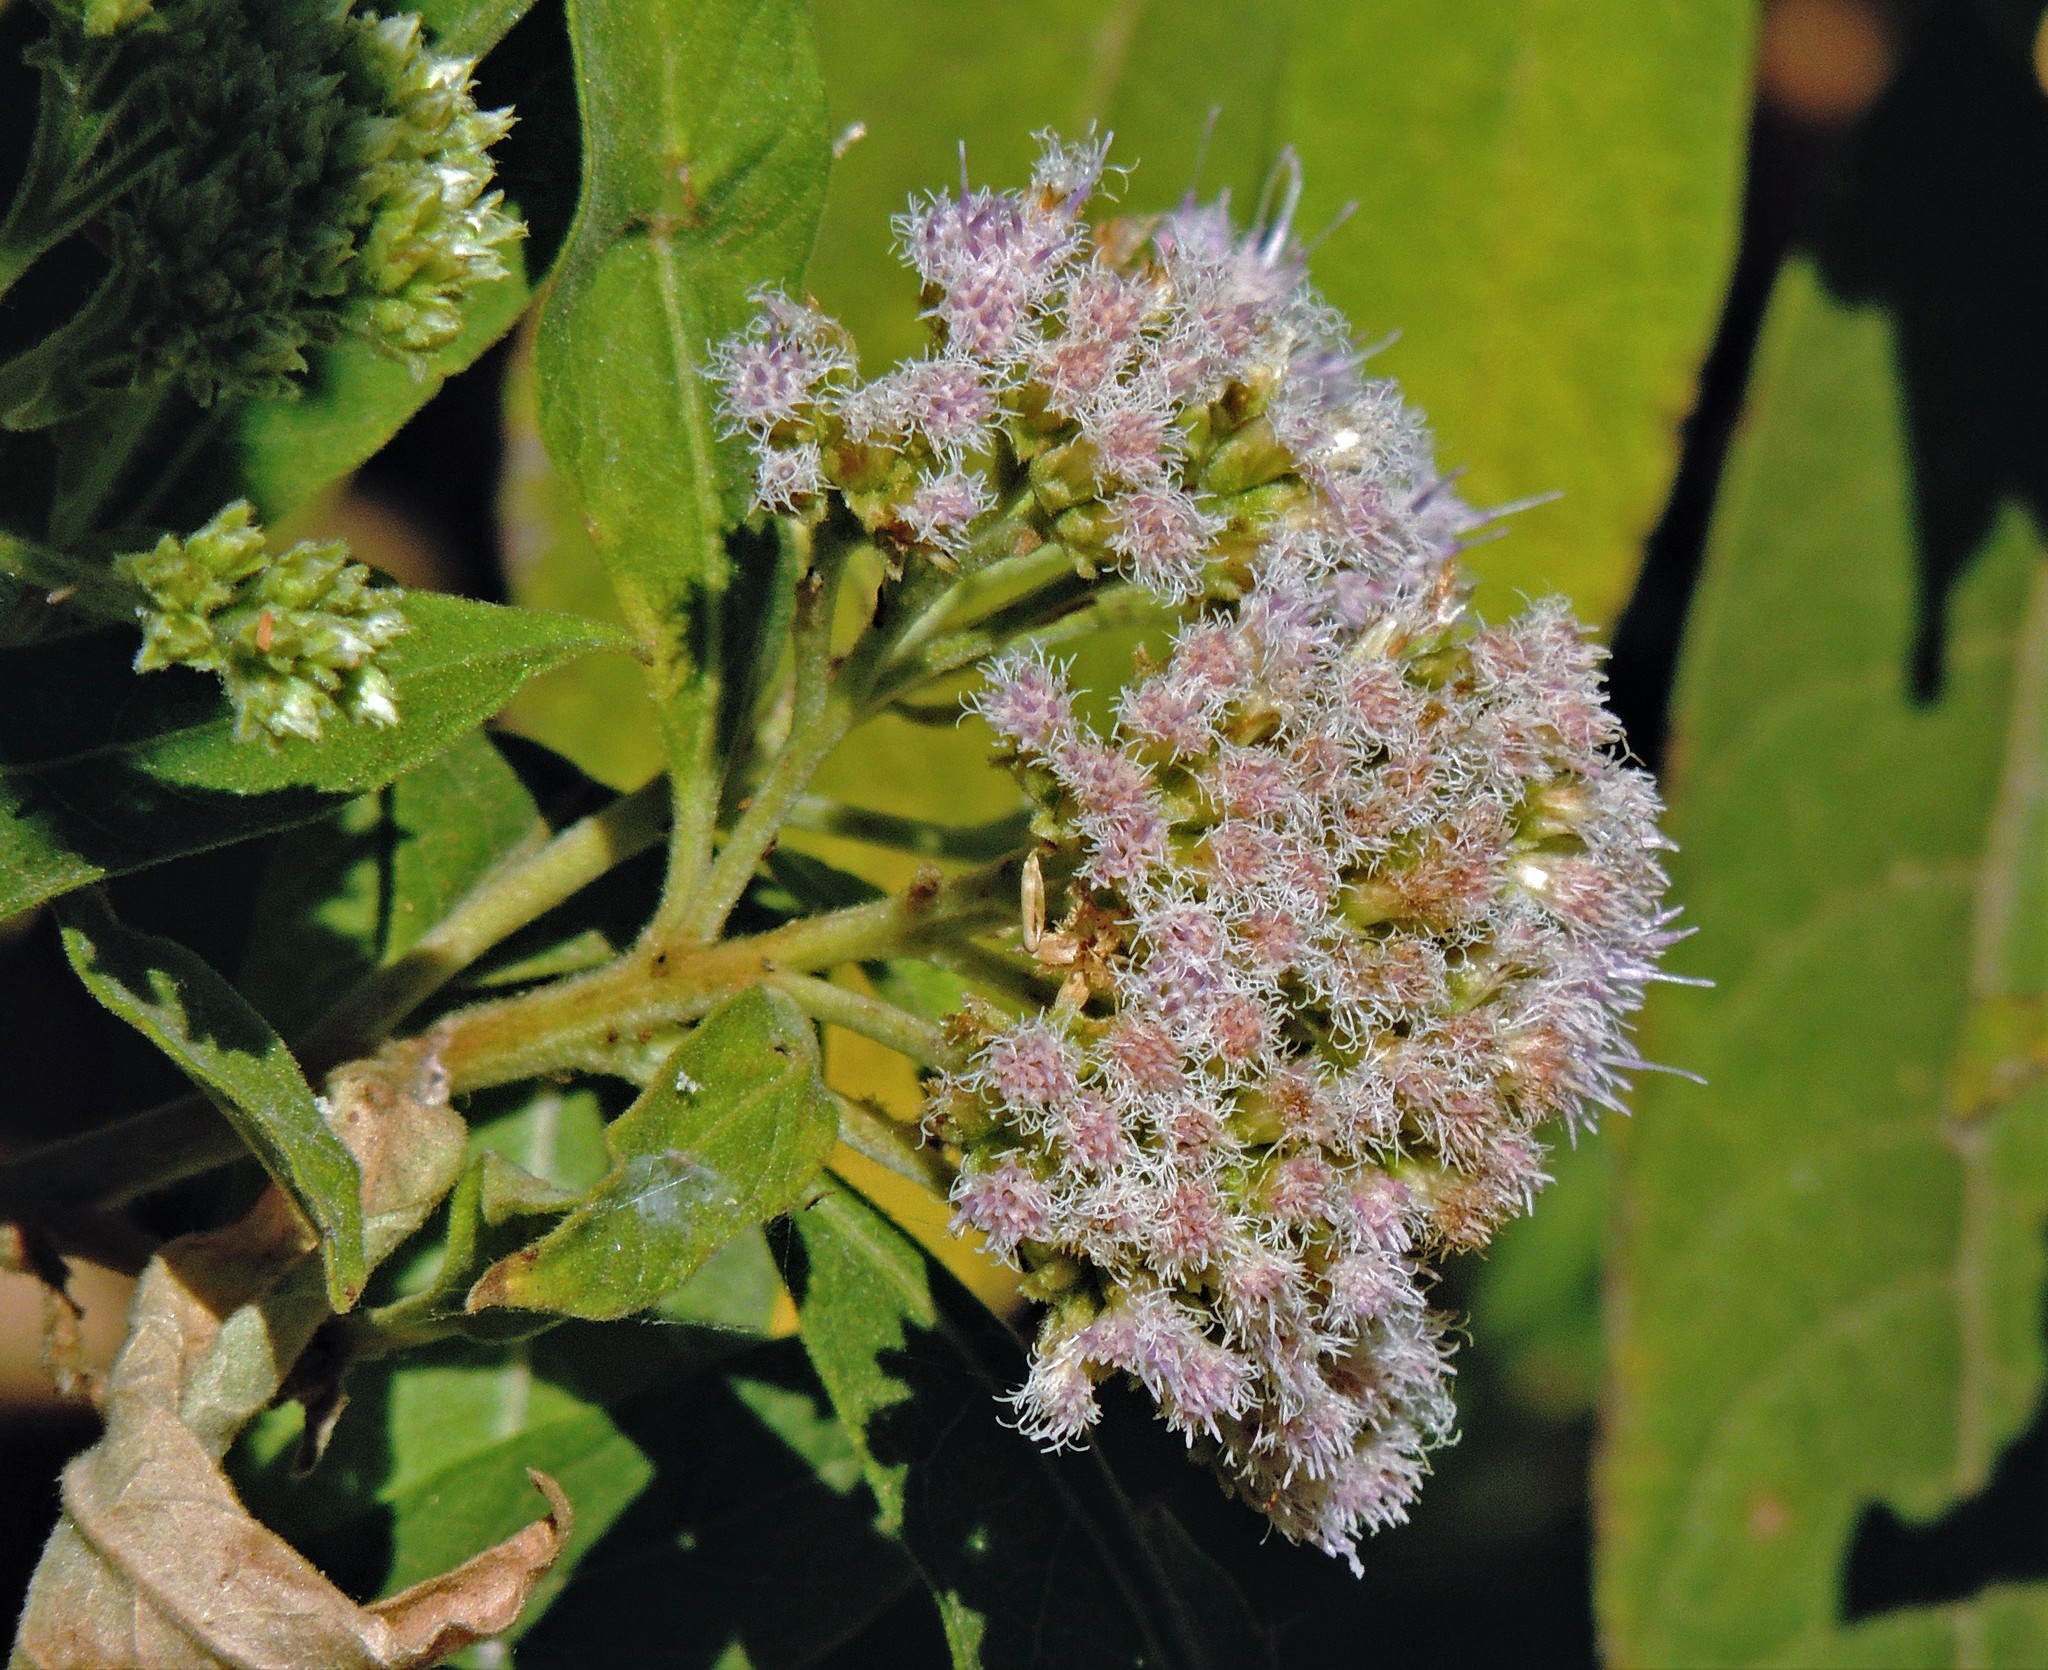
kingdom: Plantae
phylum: Tracheophyta
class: Magnoliopsida
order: Asterales
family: Asteraceae
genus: Tessaria
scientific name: Tessaria fastigiata
